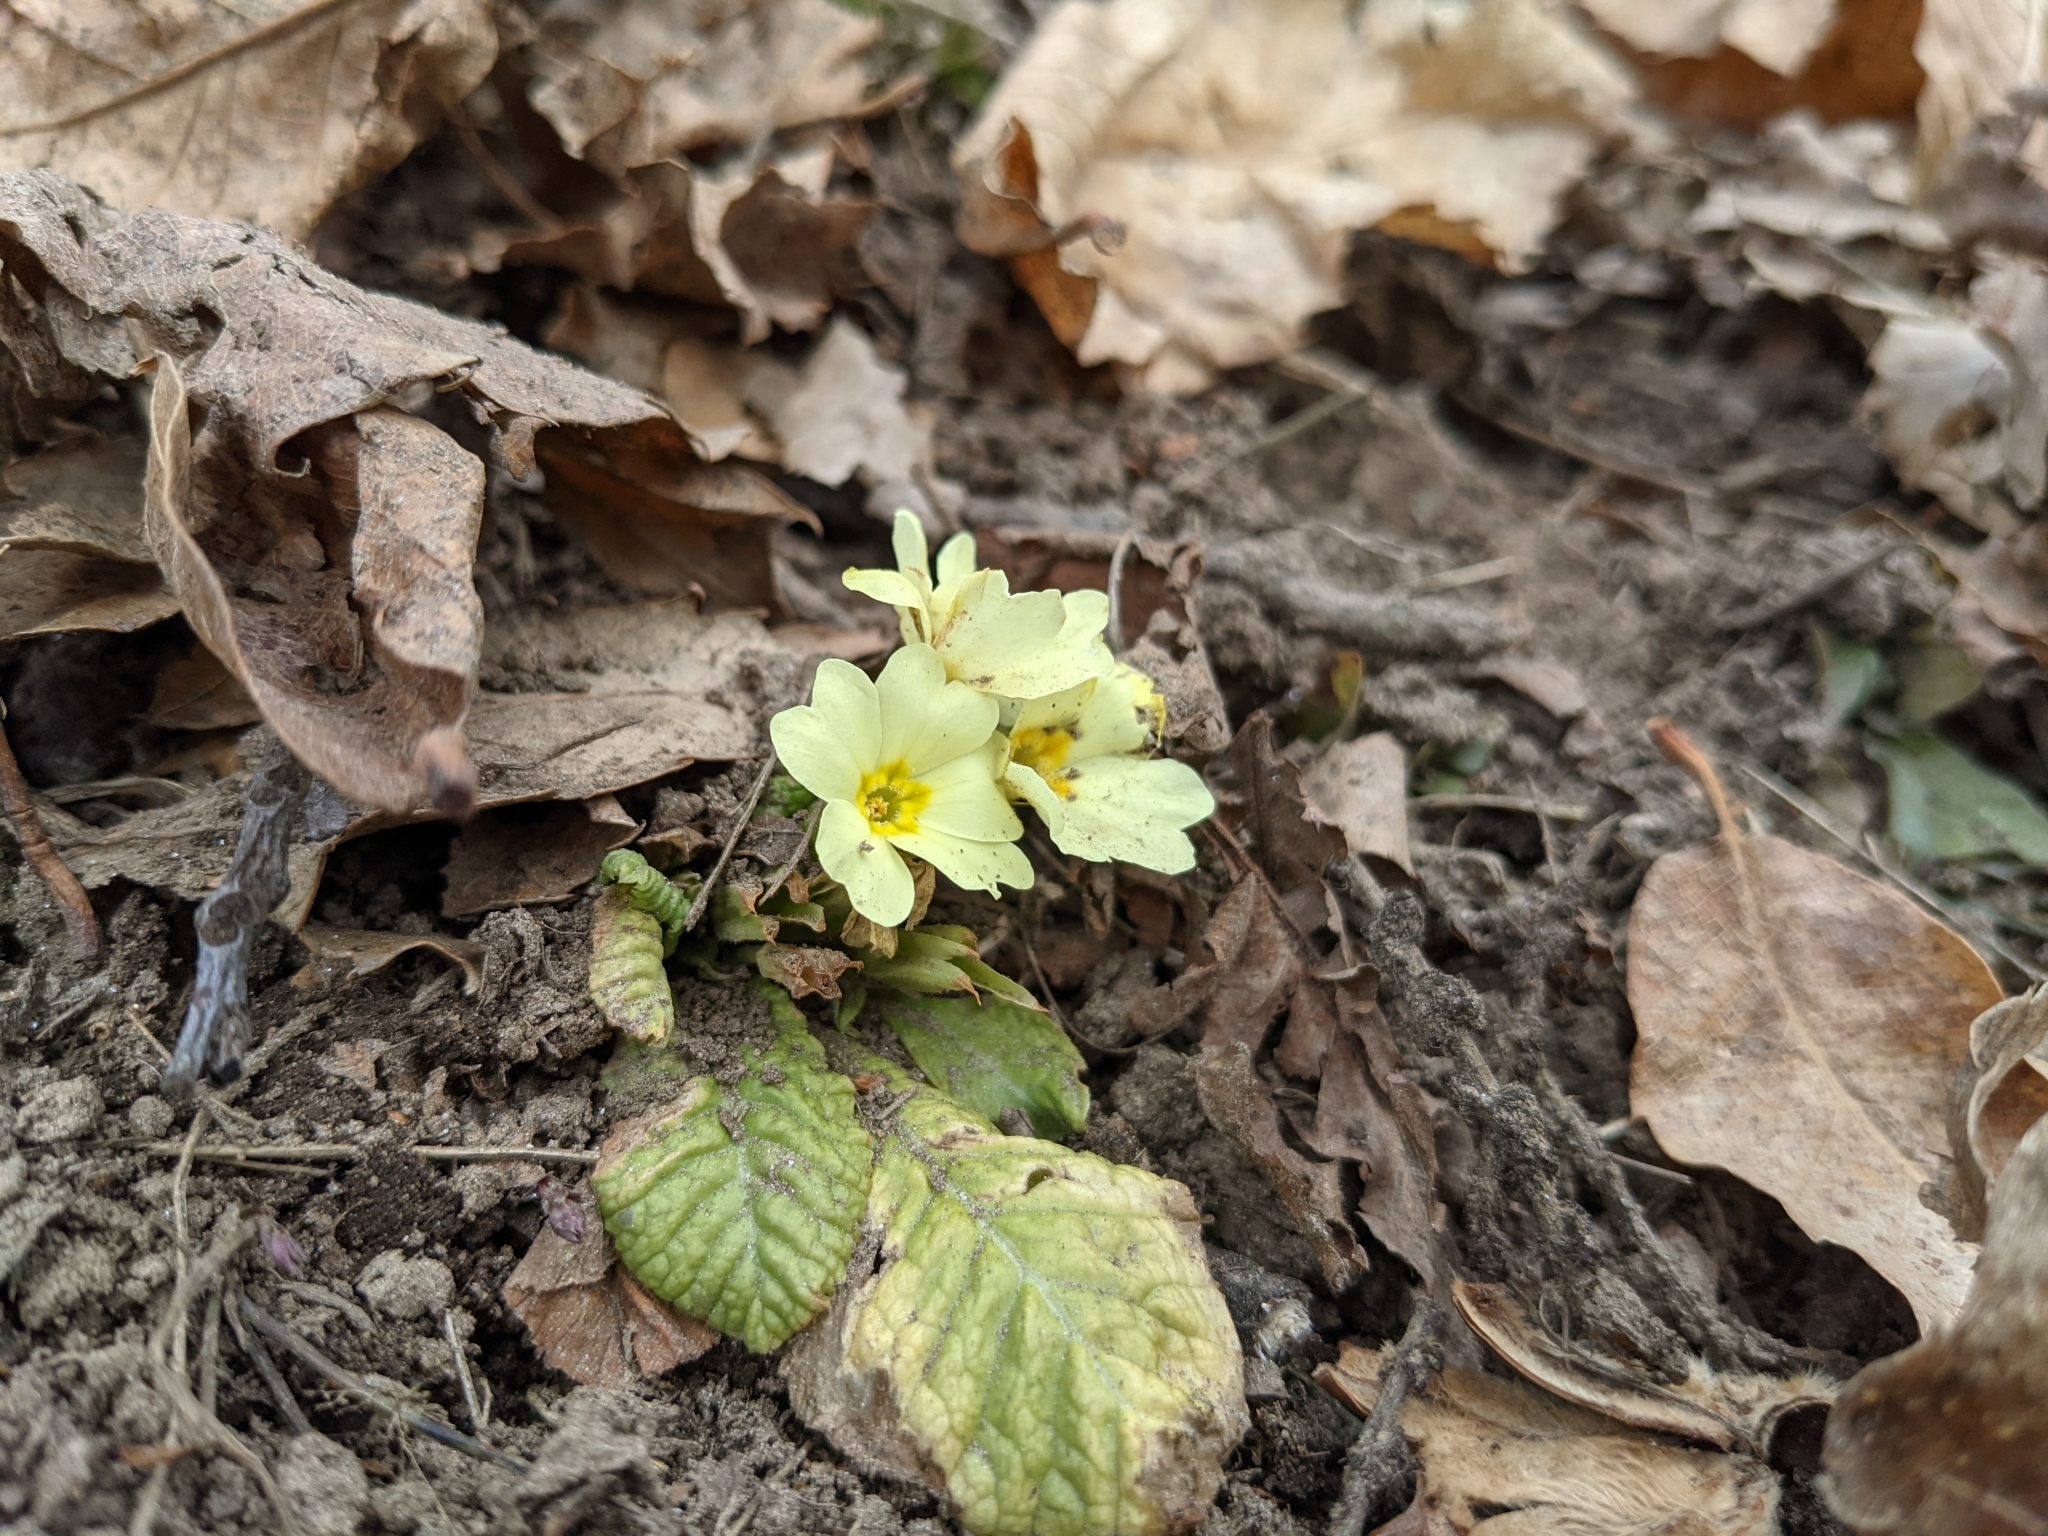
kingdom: Plantae
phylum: Tracheophyta
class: Magnoliopsida
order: Ericales
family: Primulaceae
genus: Primula
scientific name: Primula vulgaris
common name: Primrose
